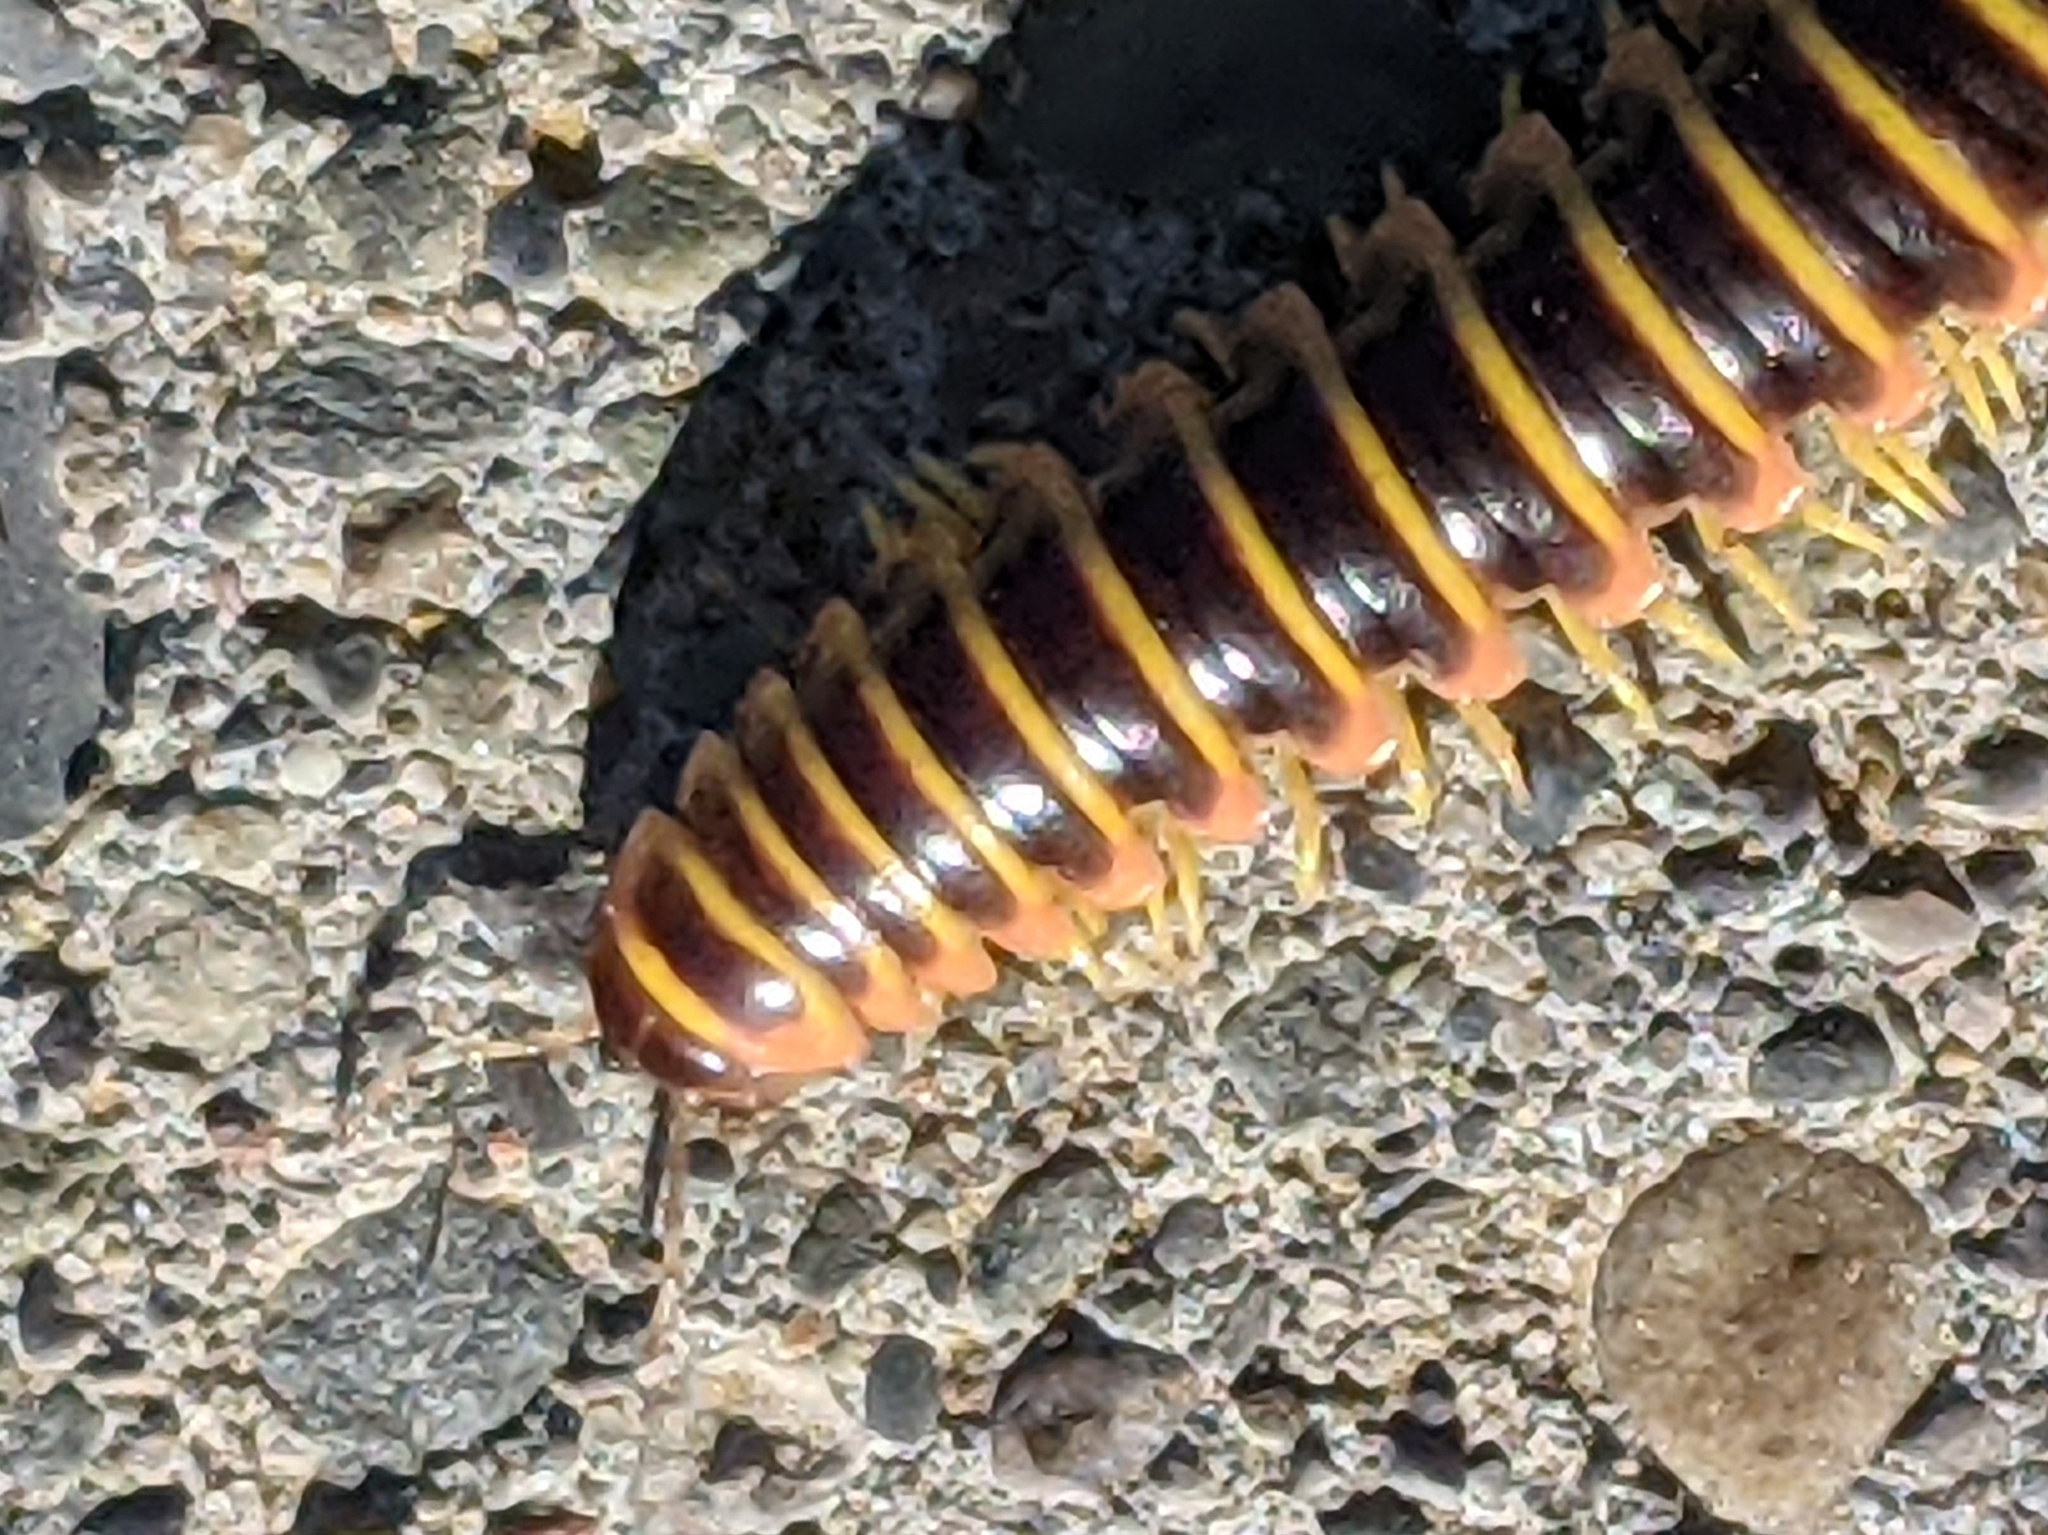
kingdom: Animalia
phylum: Arthropoda
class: Diplopoda
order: Polydesmida
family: Xystodesmidae
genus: Apheloria
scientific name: Apheloria virginiensis
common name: Black-and-gold flat millipede
